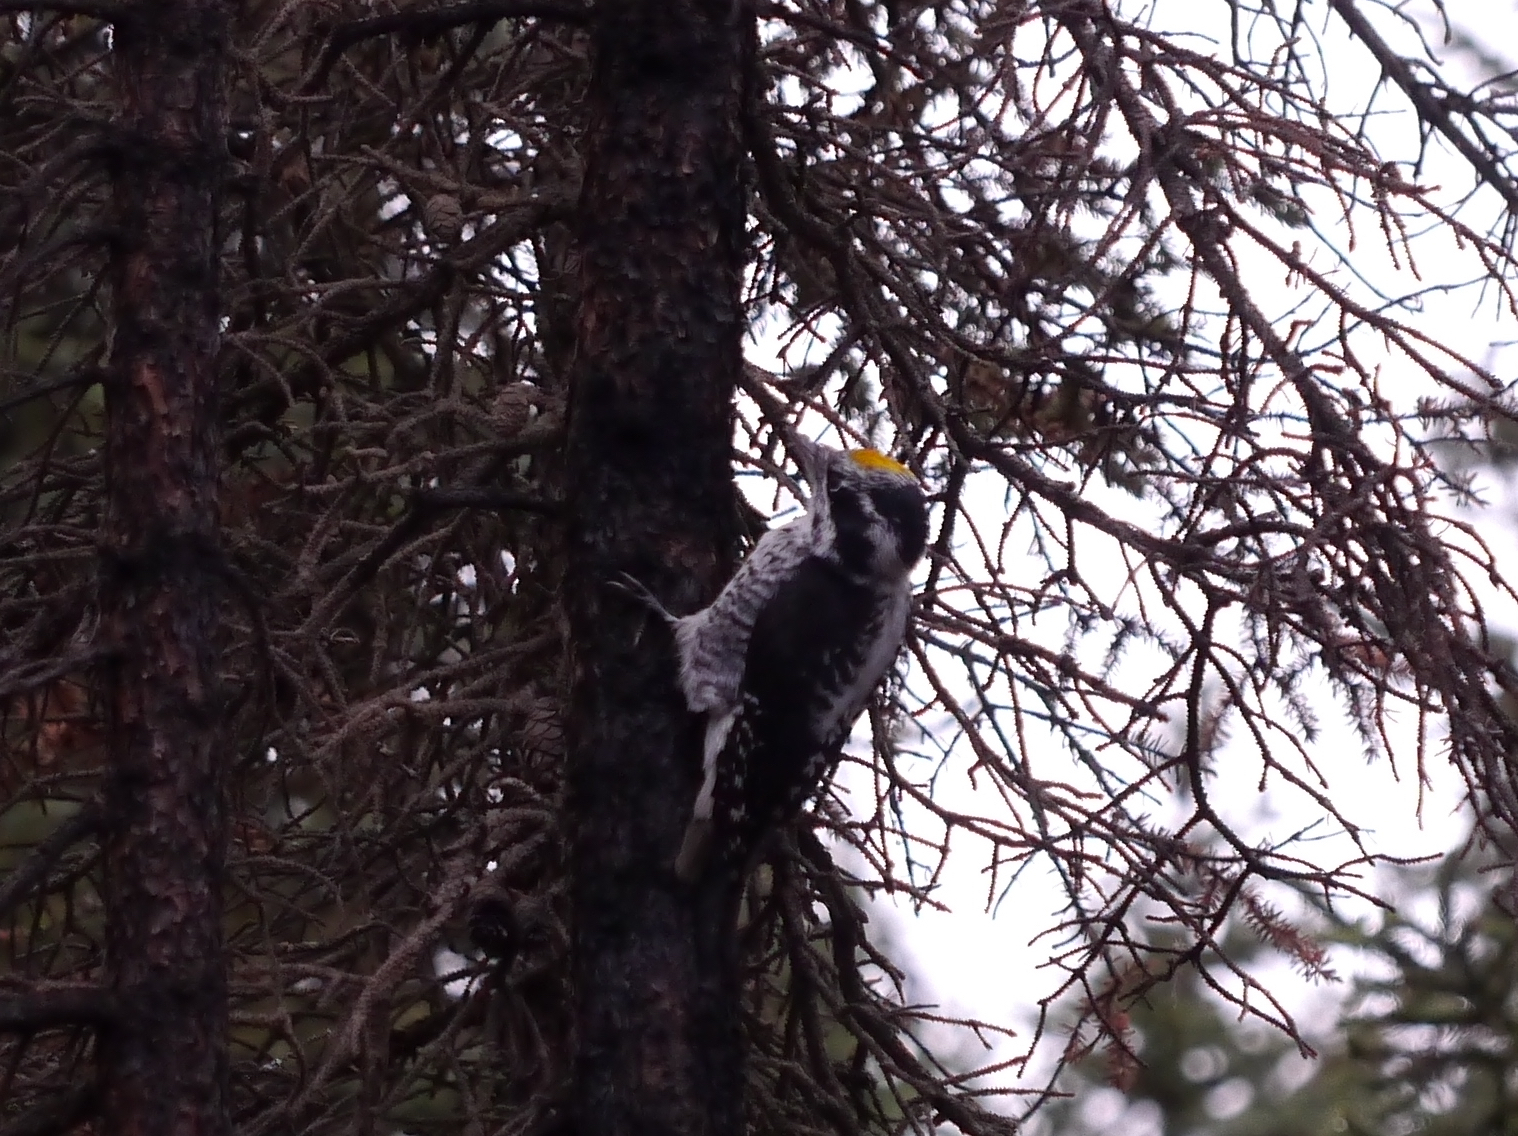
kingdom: Animalia
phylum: Chordata
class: Aves
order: Piciformes
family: Picidae
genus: Picoides
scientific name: Picoides dorsalis
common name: American three-toed woodpecker
